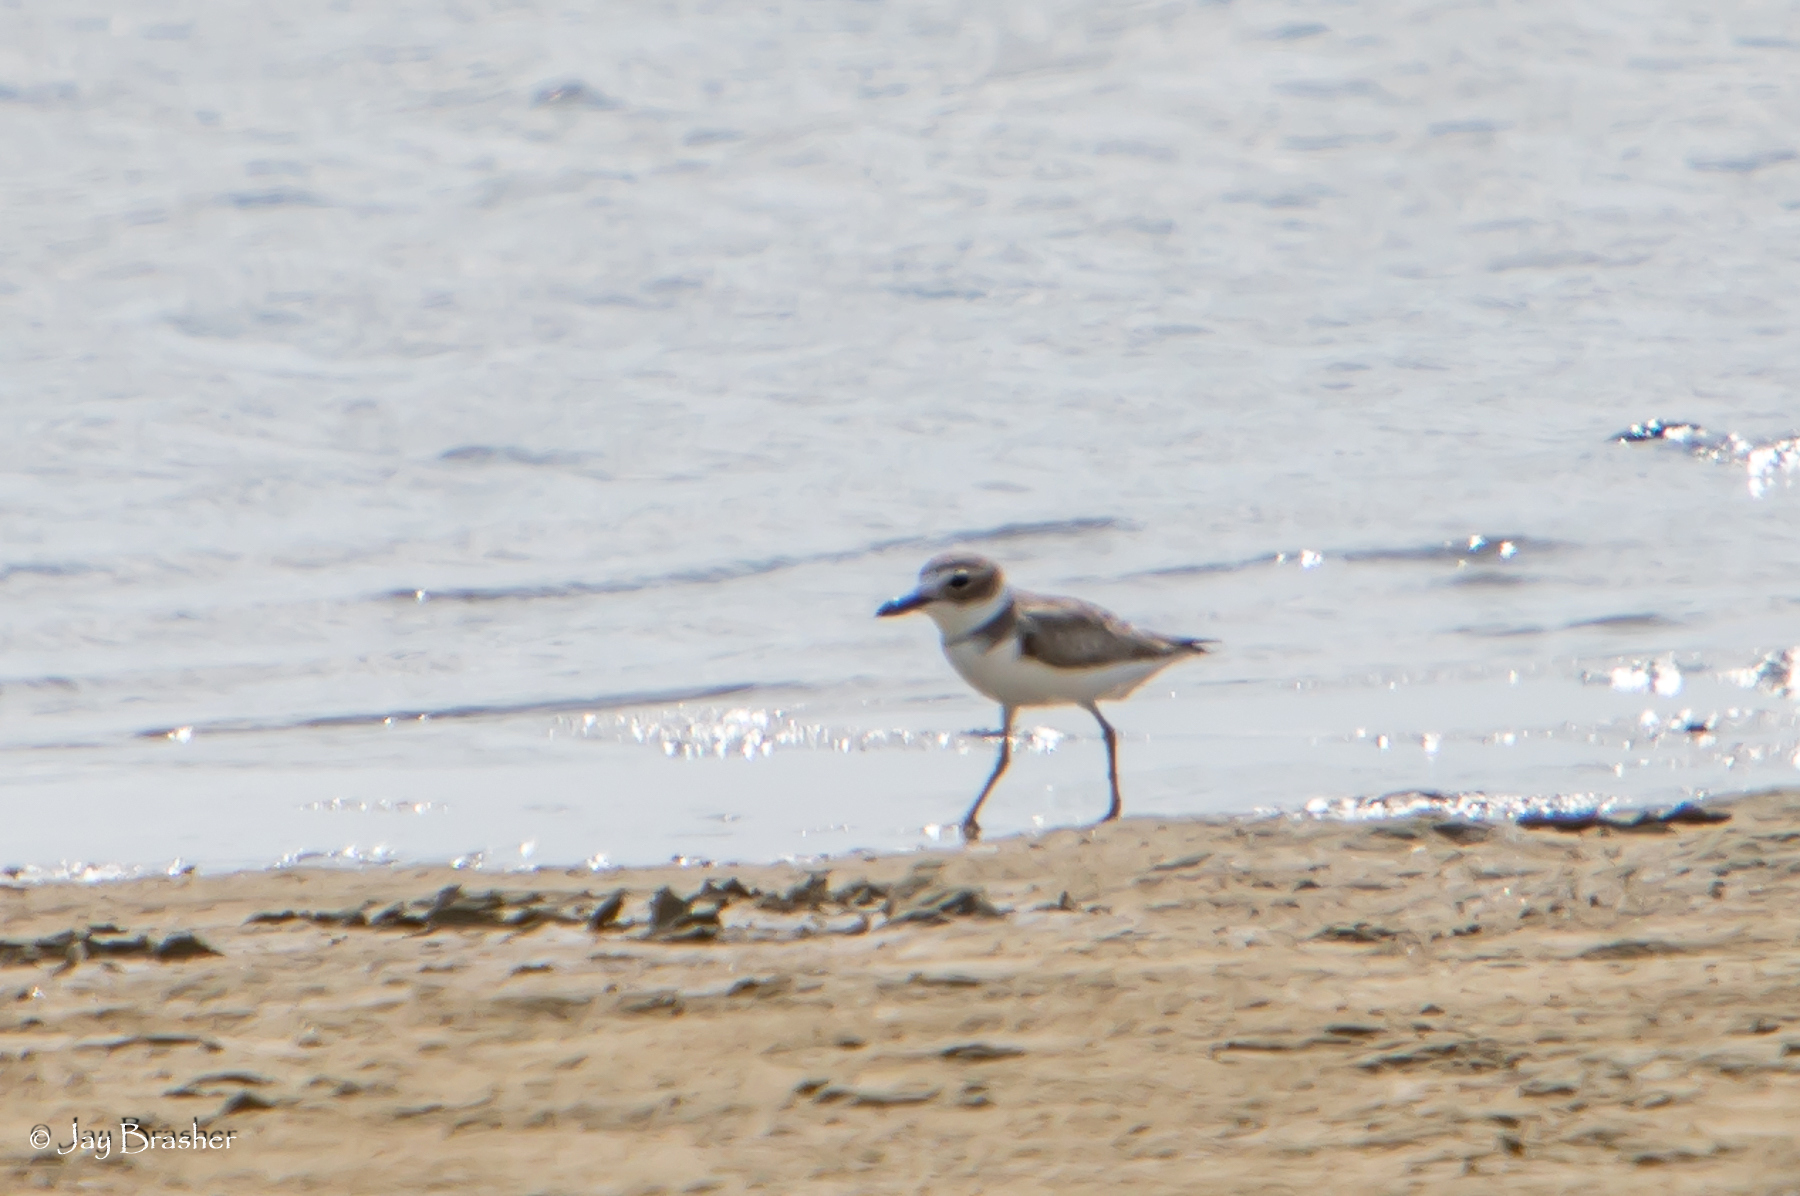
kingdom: Animalia
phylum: Chordata
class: Aves
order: Charadriiformes
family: Charadriidae
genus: Anarhynchus
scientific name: Anarhynchus
